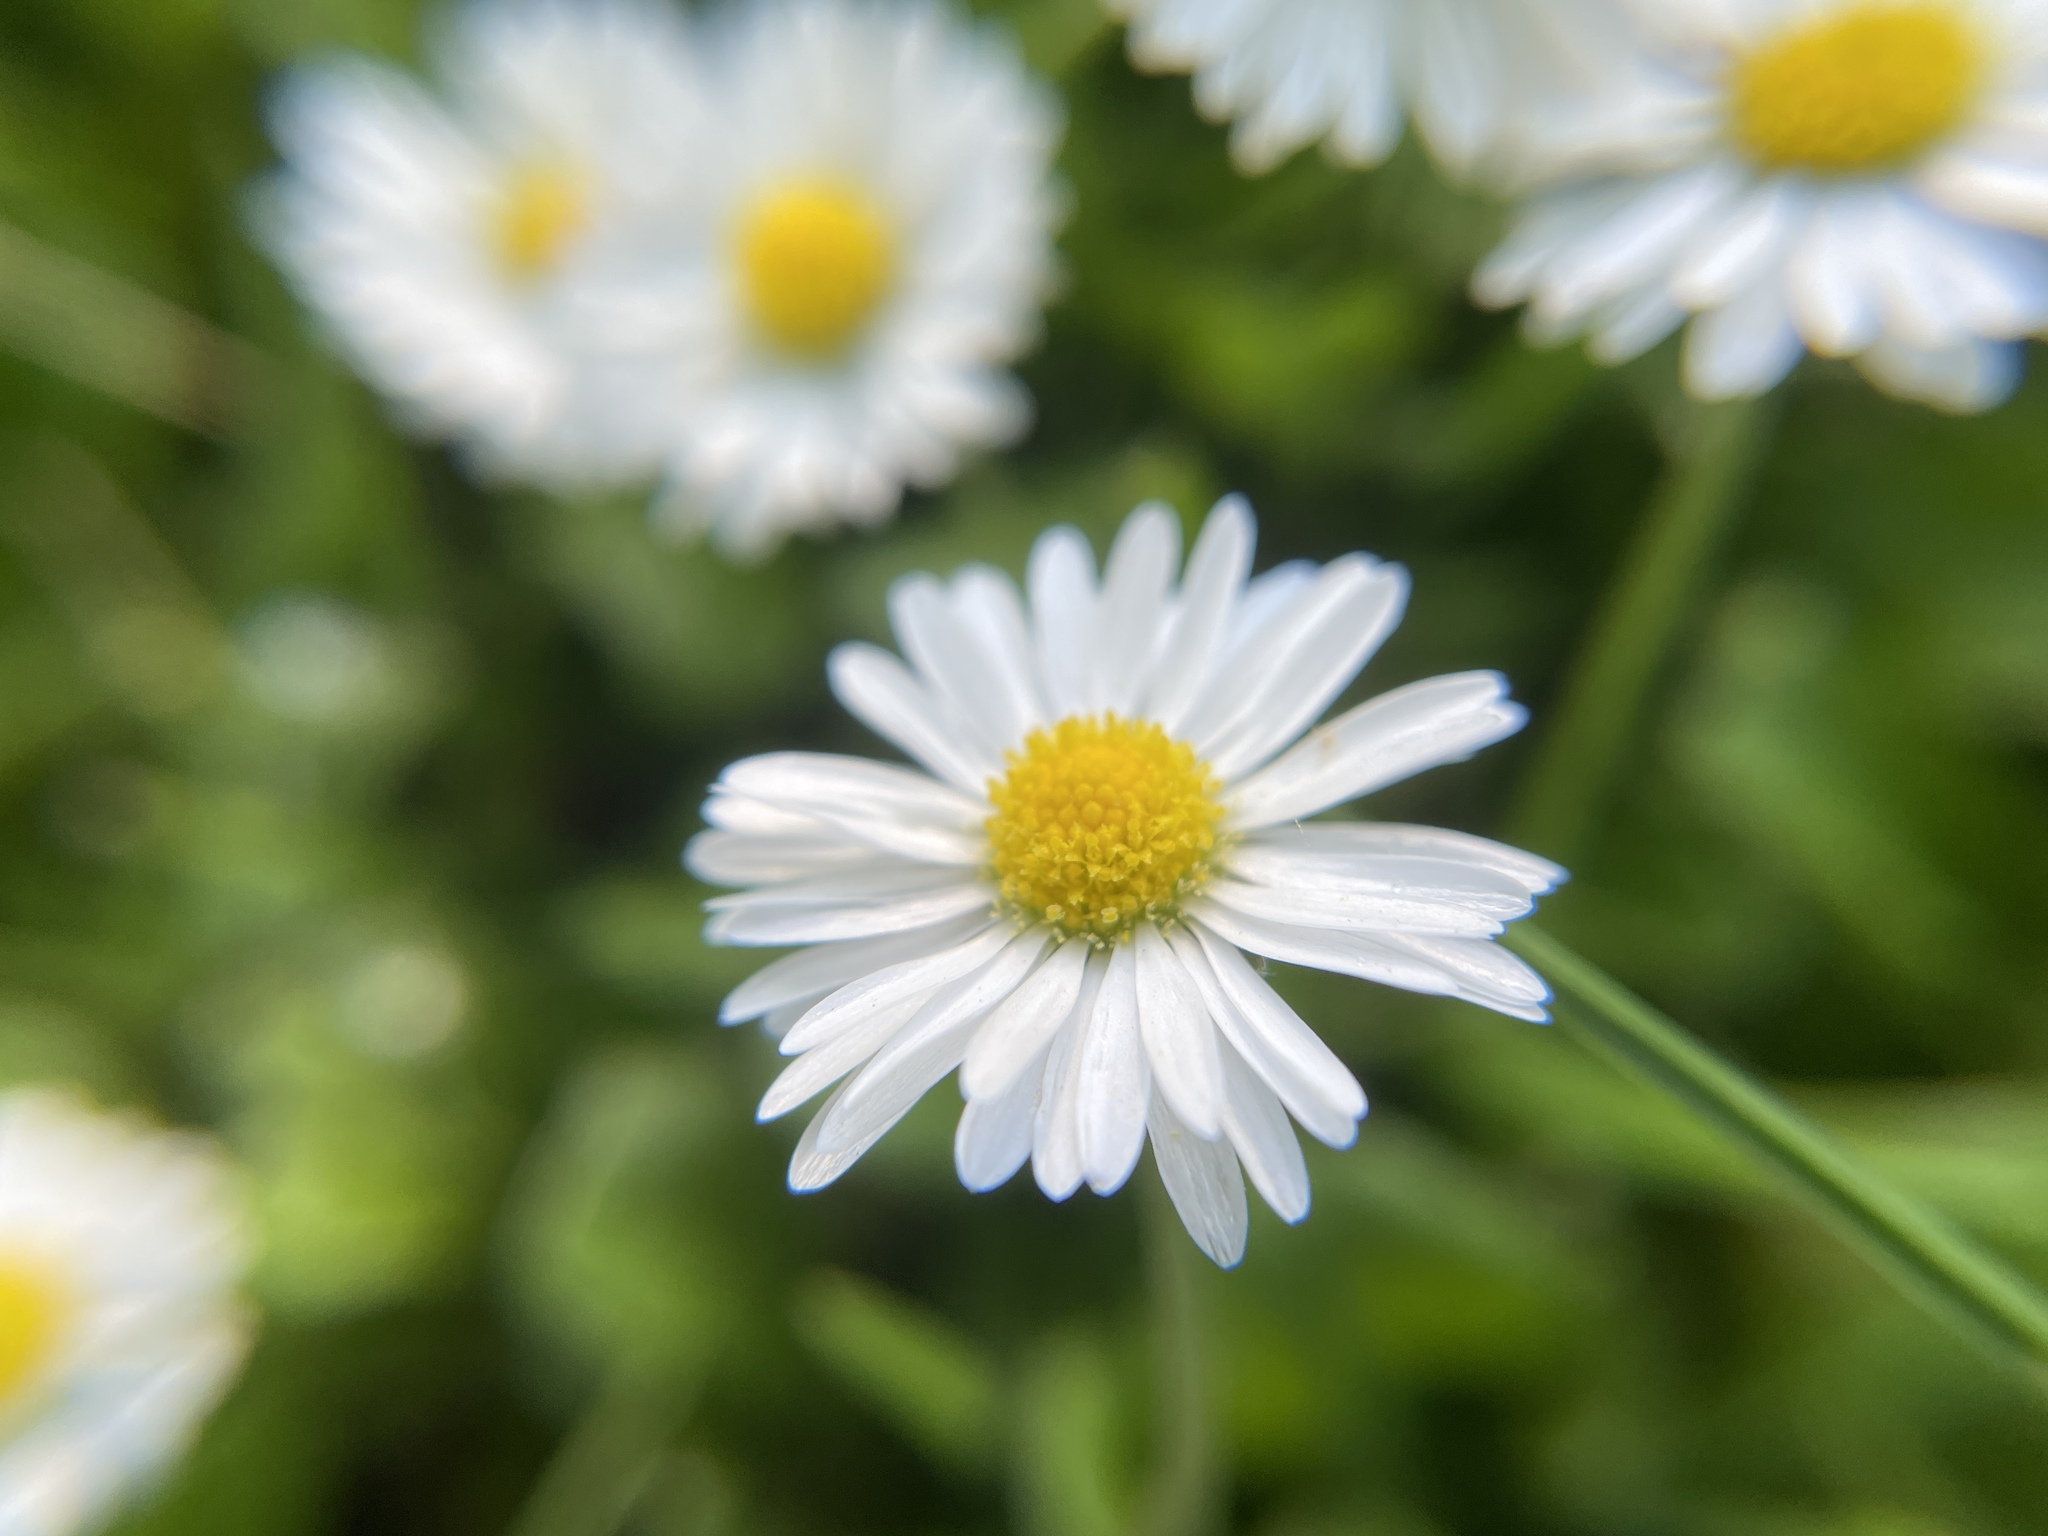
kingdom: Plantae
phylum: Tracheophyta
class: Magnoliopsida
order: Asterales
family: Asteraceae
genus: Bellis
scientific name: Bellis perennis
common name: Lawndaisy
